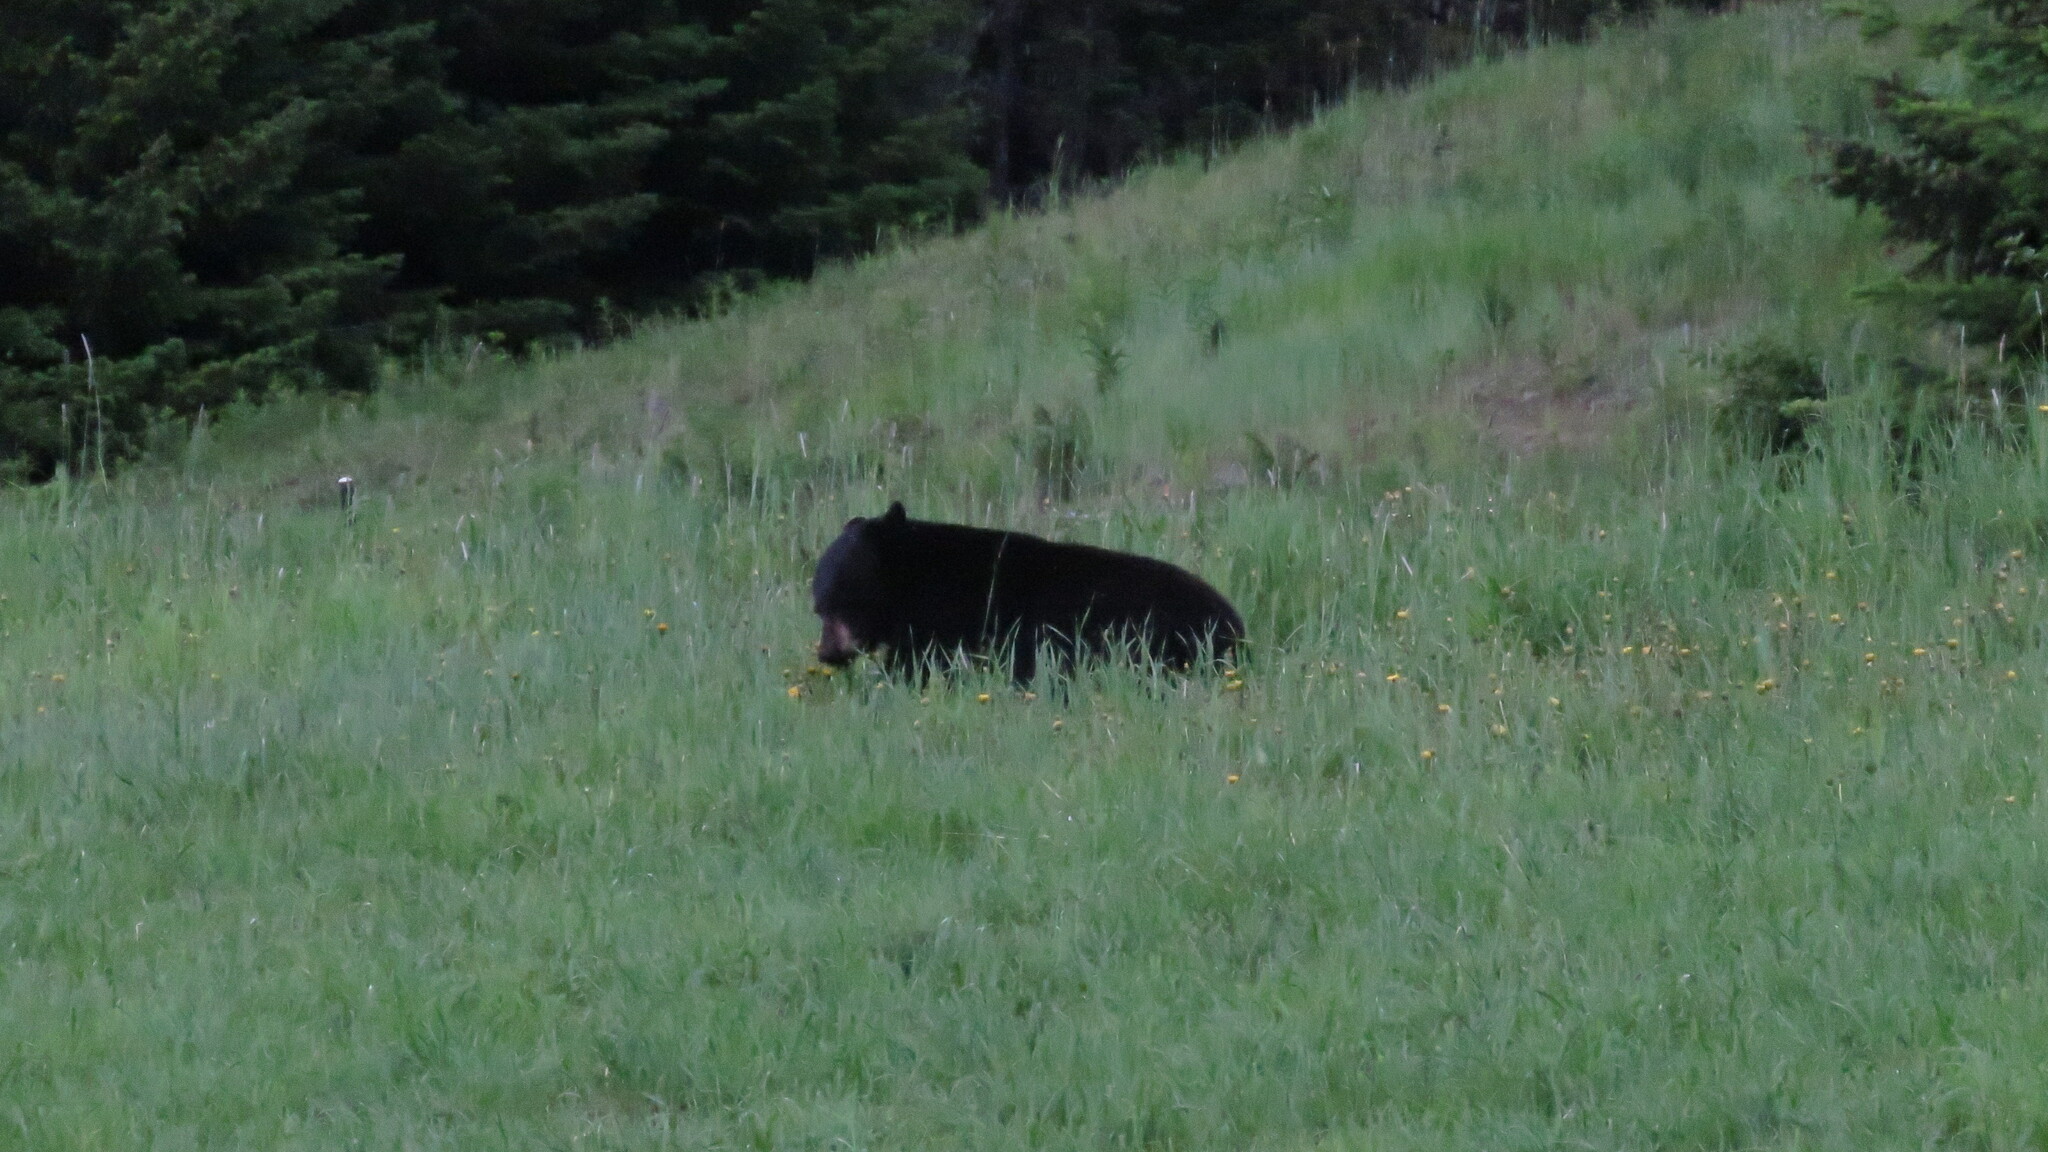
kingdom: Animalia
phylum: Chordata
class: Mammalia
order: Carnivora
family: Ursidae
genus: Ursus
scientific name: Ursus americanus
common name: American black bear
